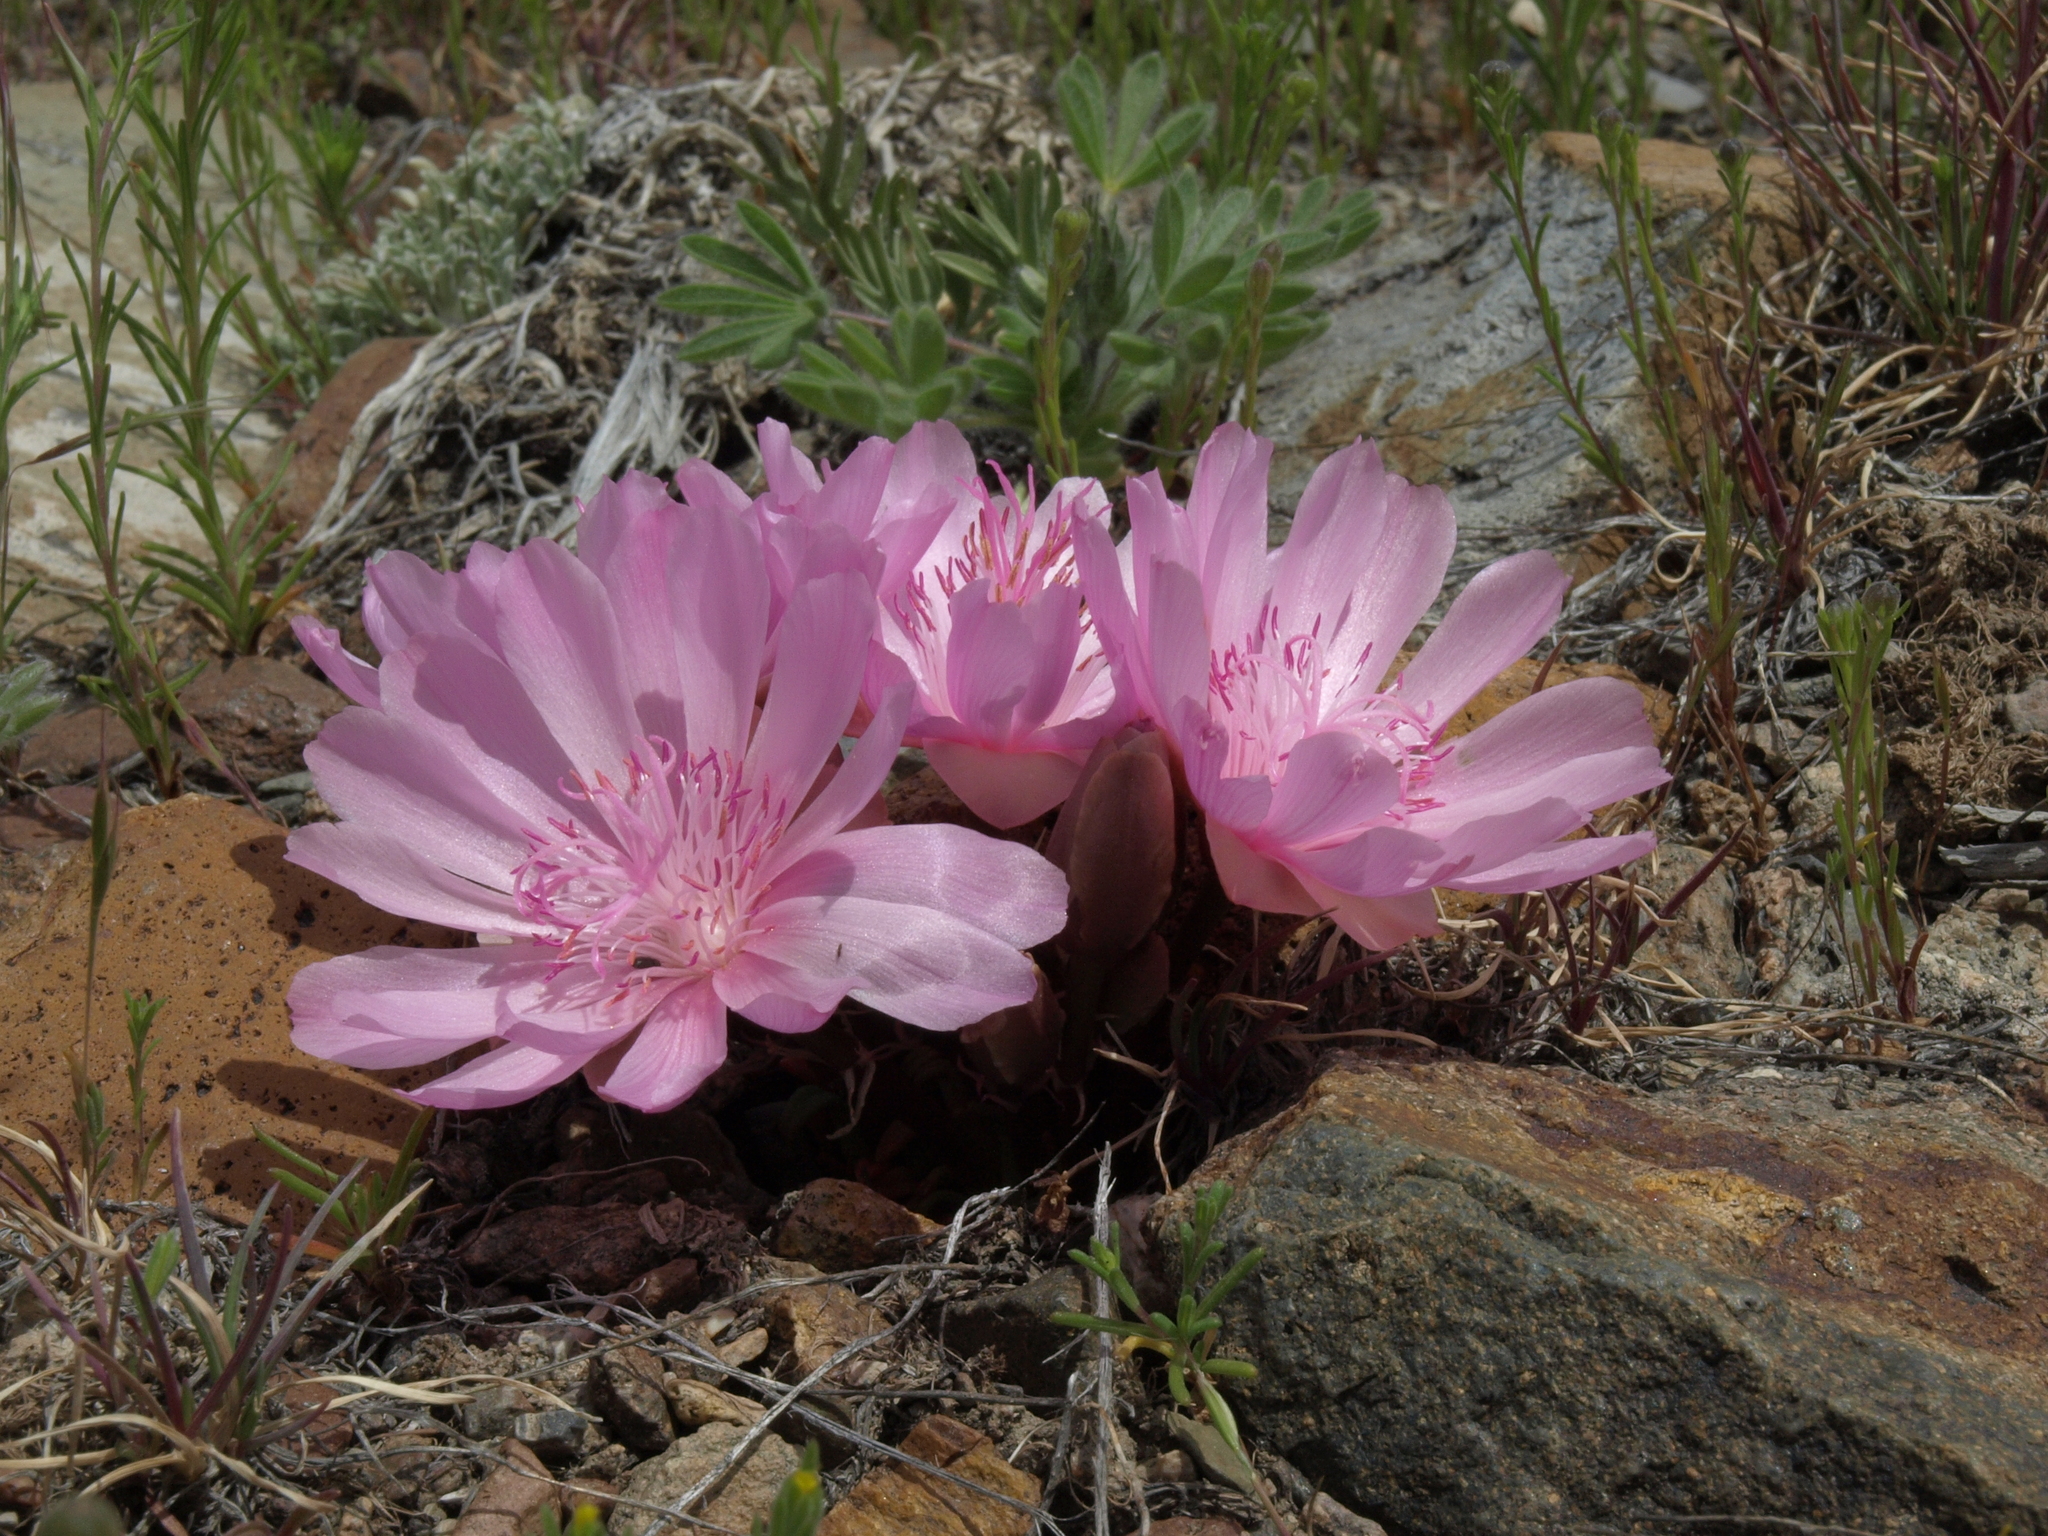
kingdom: Plantae
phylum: Tracheophyta
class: Magnoliopsida
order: Caryophyllales
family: Montiaceae
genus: Lewisia
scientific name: Lewisia rediviva
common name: Bitter-root
